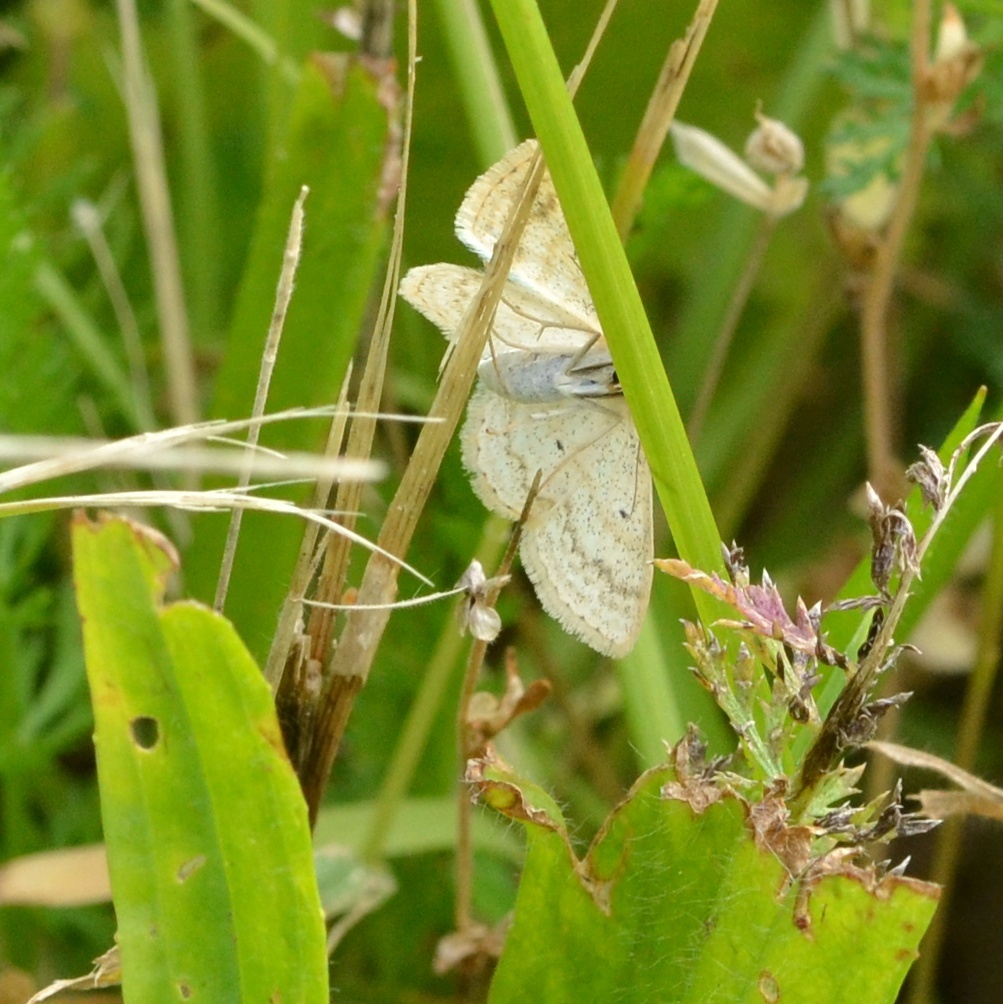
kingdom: Animalia
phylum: Arthropoda
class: Insecta
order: Lepidoptera
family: Geometridae
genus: Scopula
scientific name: Scopula immutata
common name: Lesser cream wave
